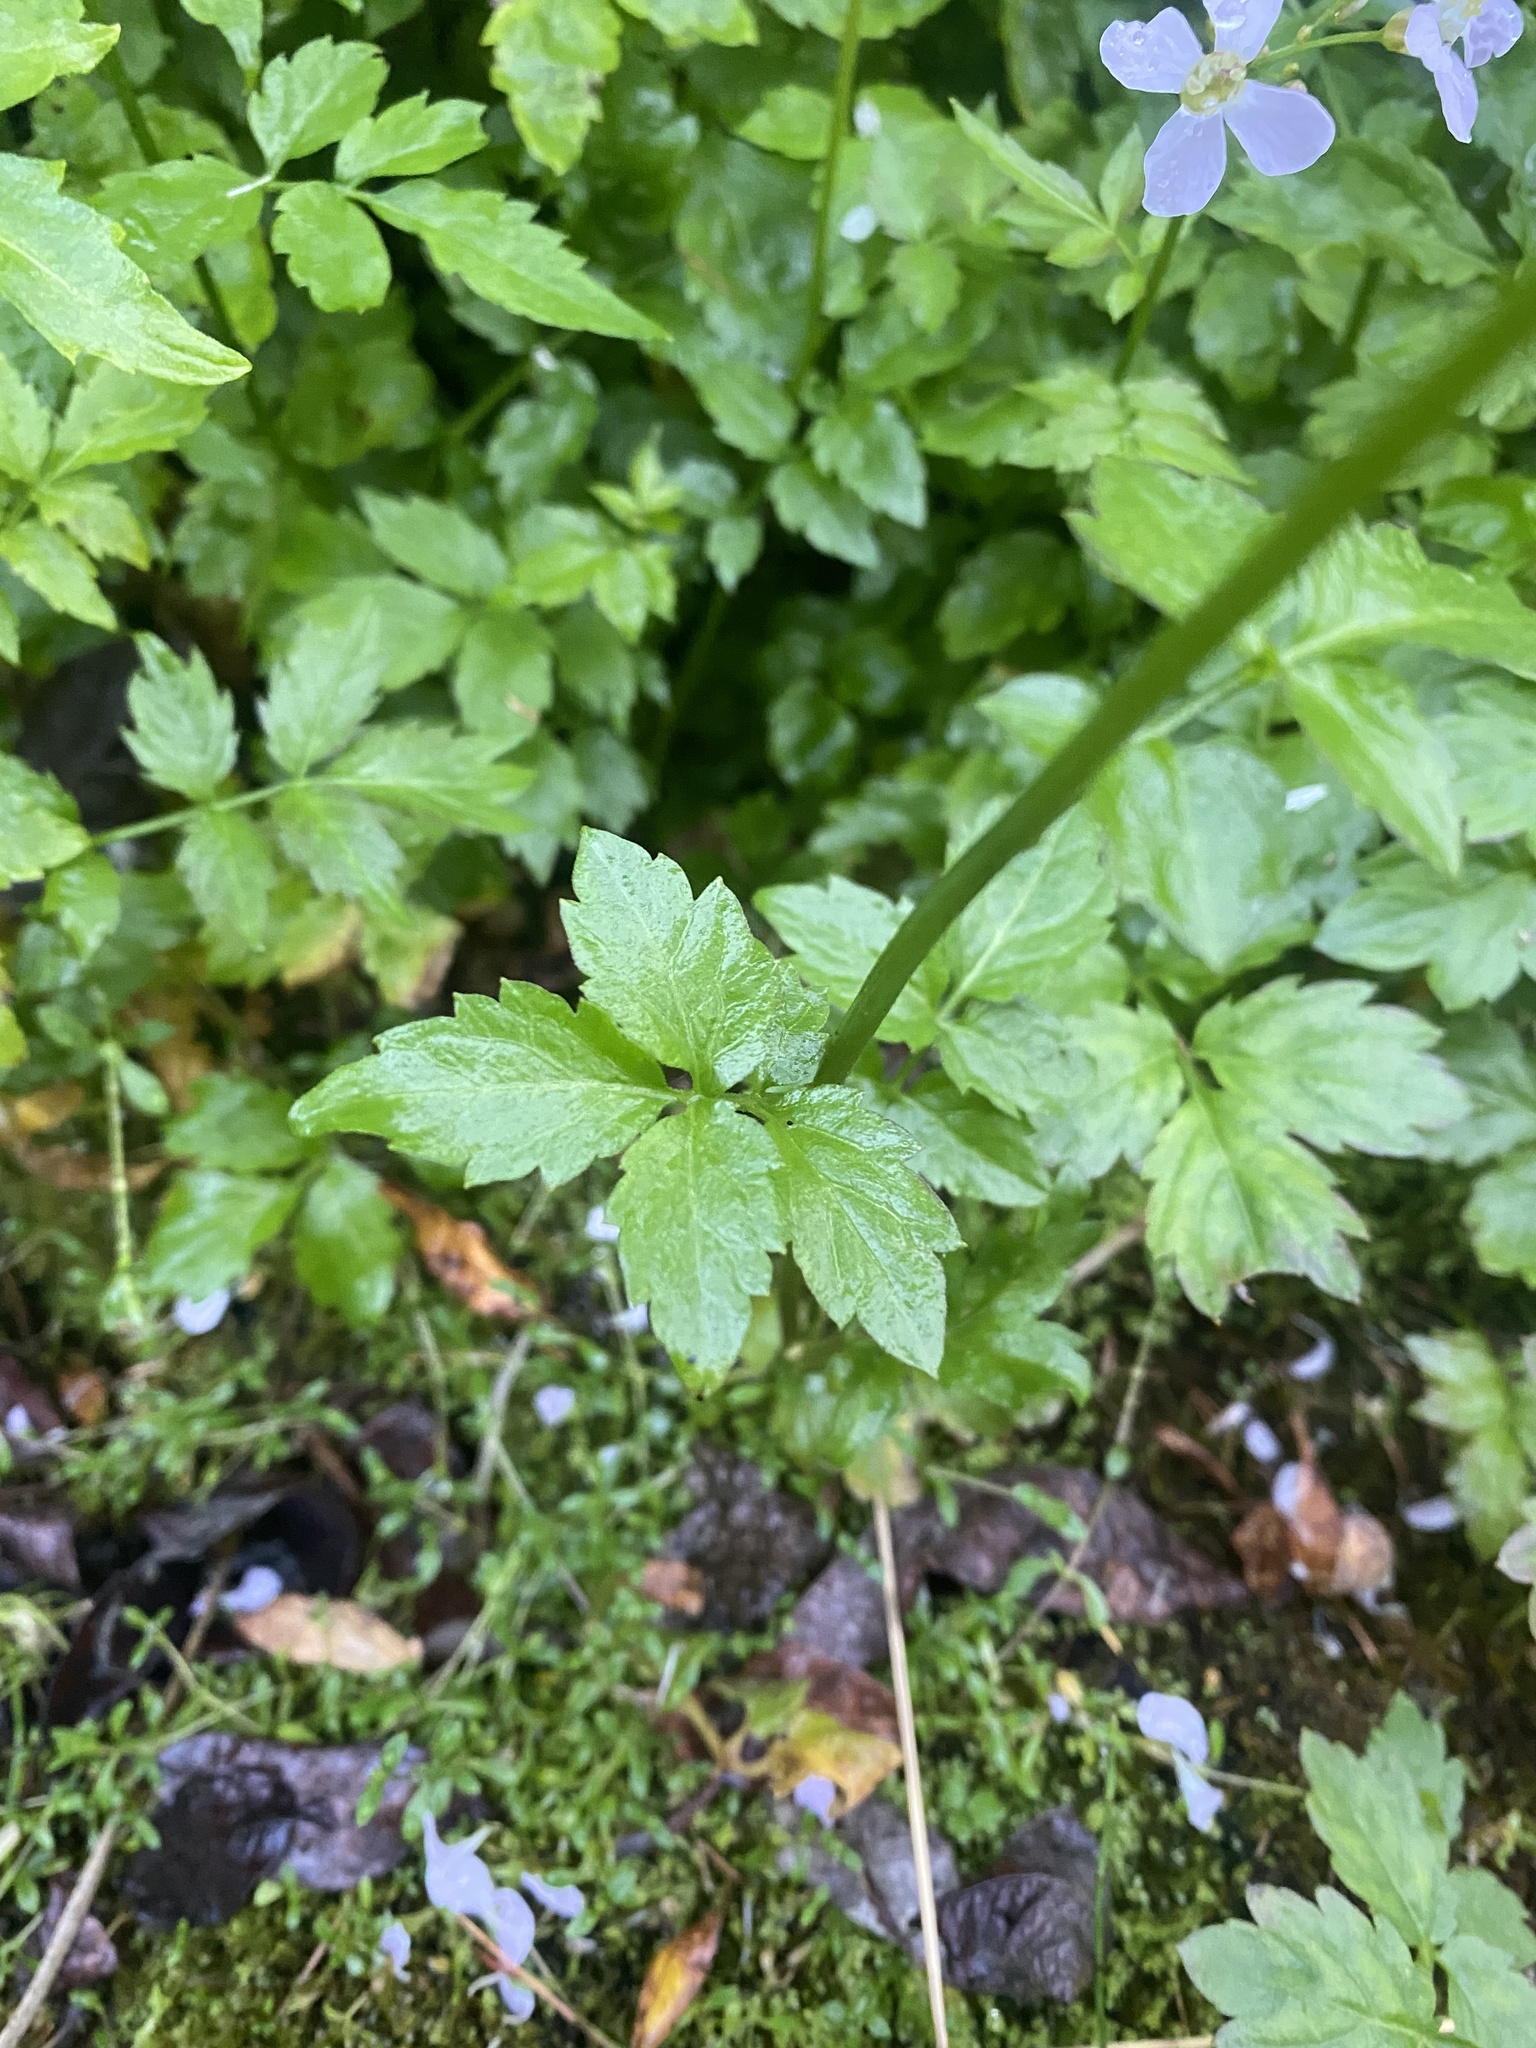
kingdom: Plantae
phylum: Tracheophyta
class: Magnoliopsida
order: Brassicales
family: Brassicaceae
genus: Cardamine
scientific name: Cardamine macrophylla
